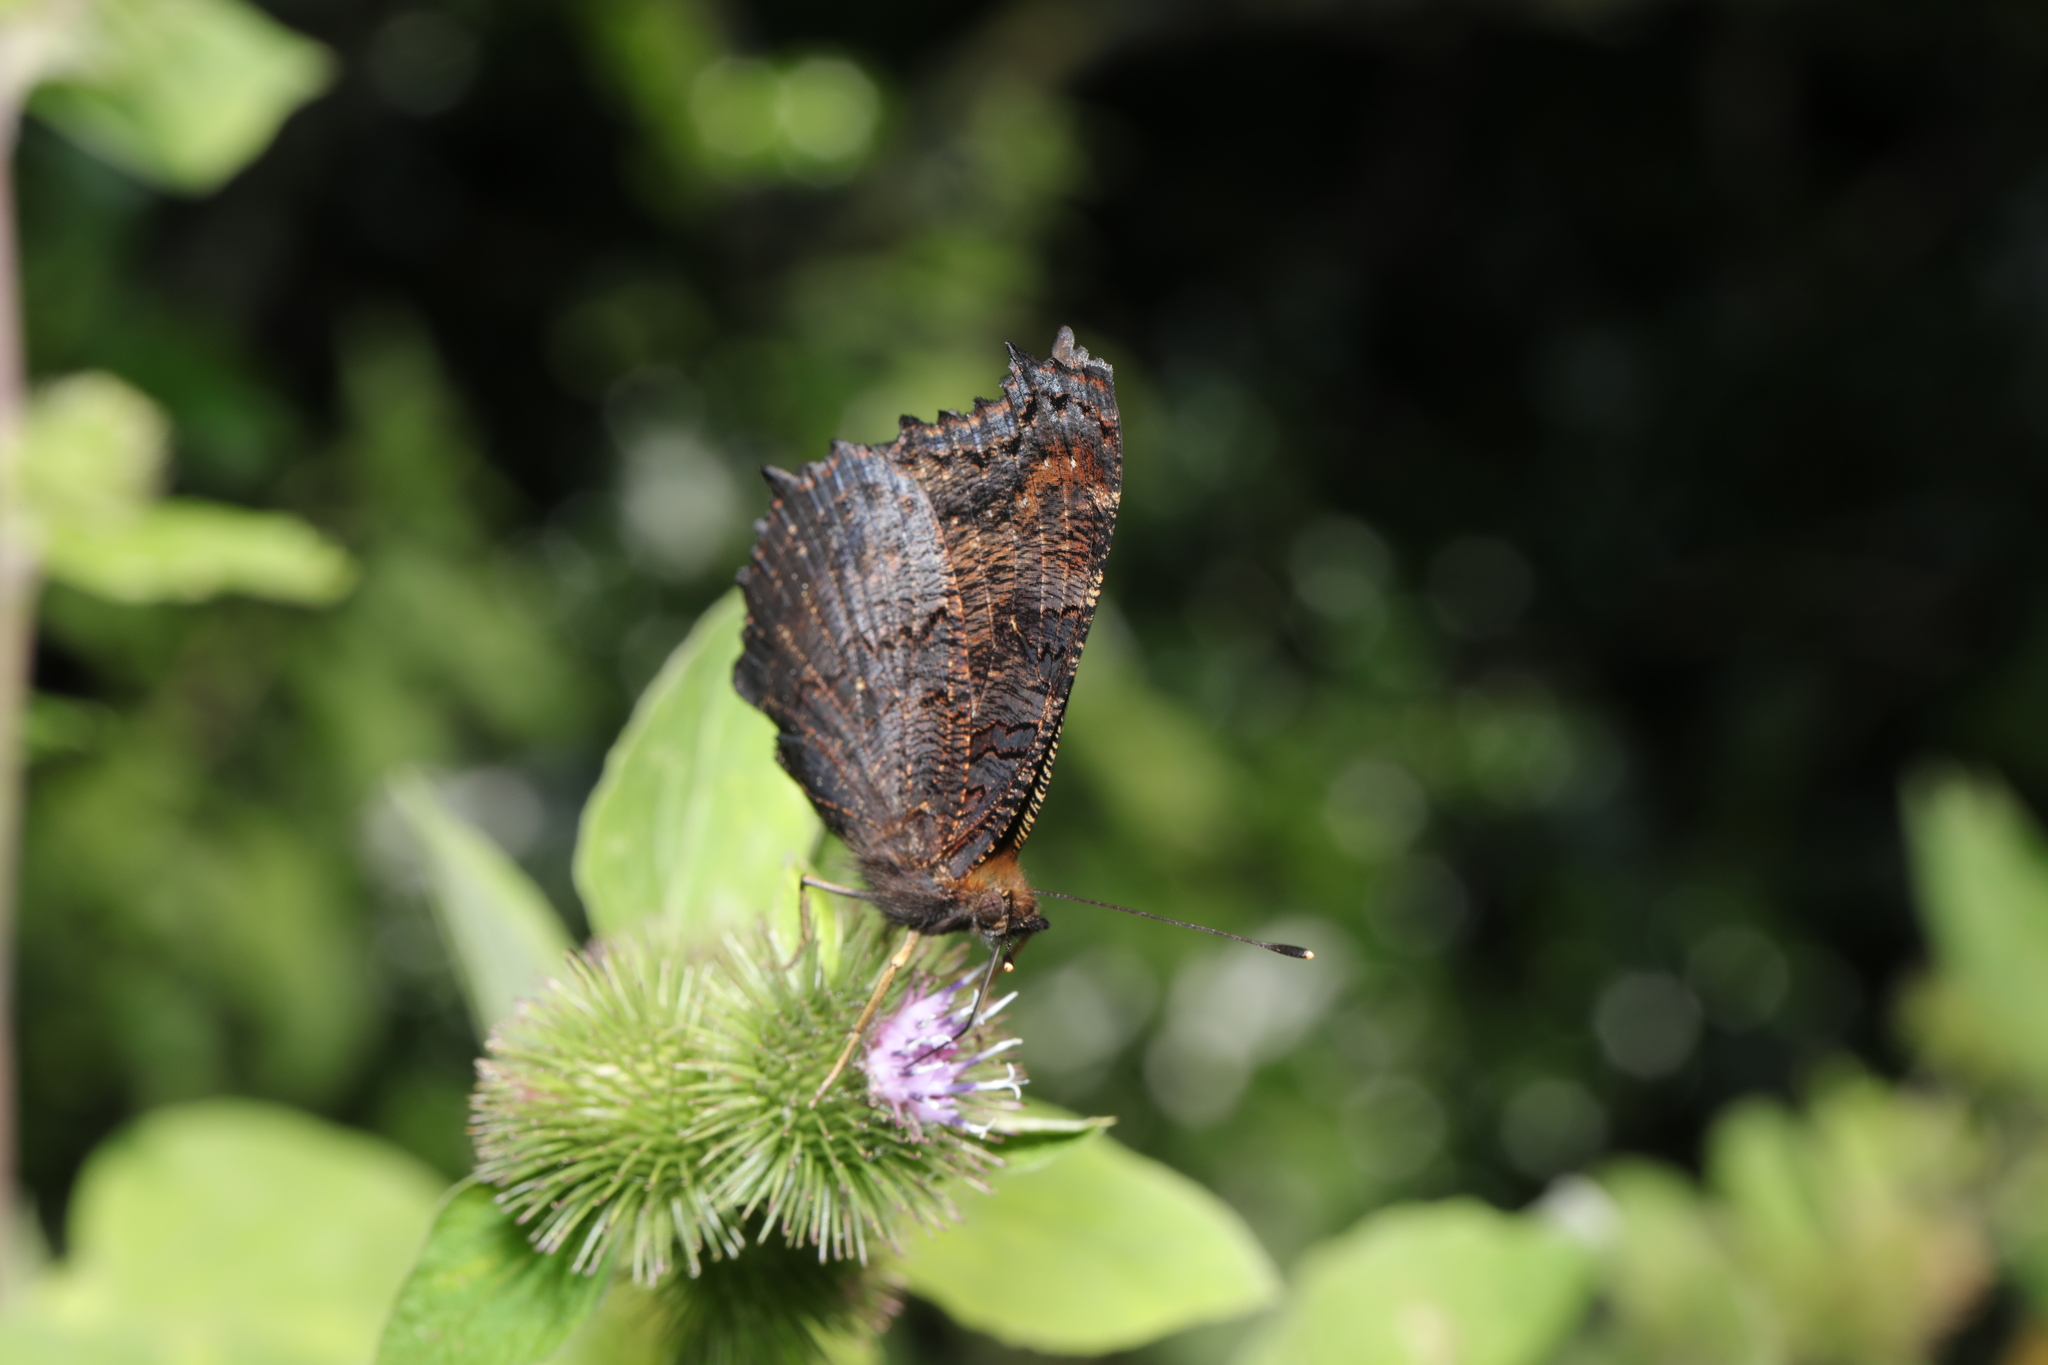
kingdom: Animalia
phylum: Arthropoda
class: Insecta
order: Lepidoptera
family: Nymphalidae
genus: Aglais
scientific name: Aglais io
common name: Peacock
